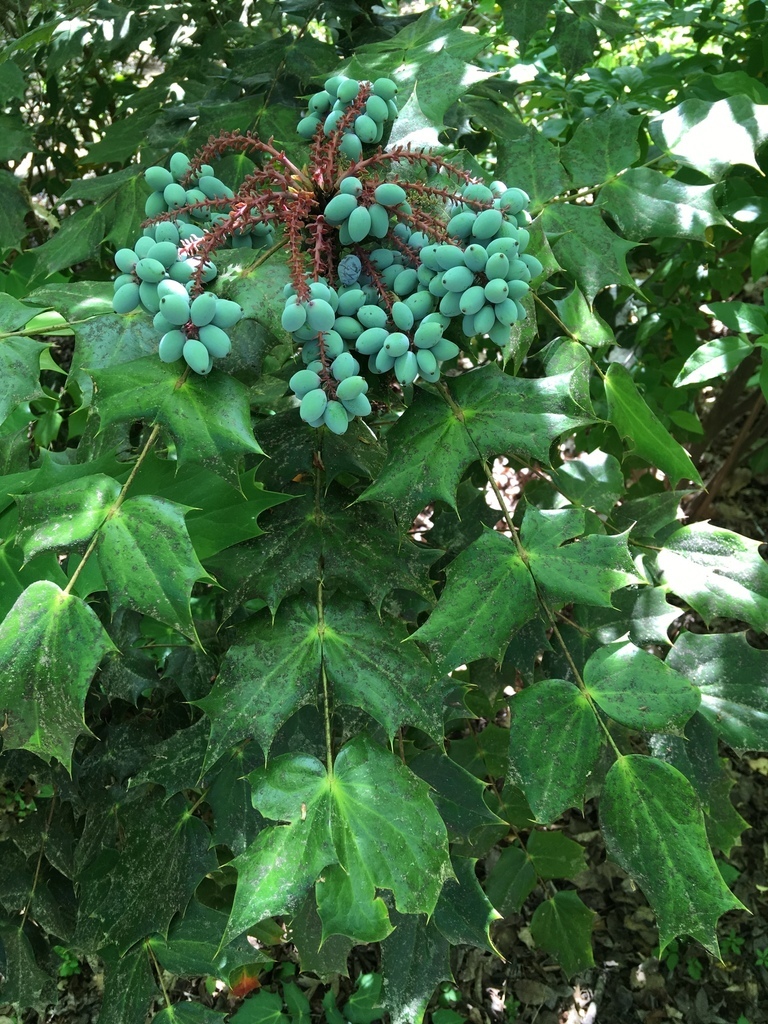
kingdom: Plantae
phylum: Tracheophyta
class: Magnoliopsida
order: Ranunculales
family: Berberidaceae
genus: Mahonia
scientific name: Mahonia bealei
